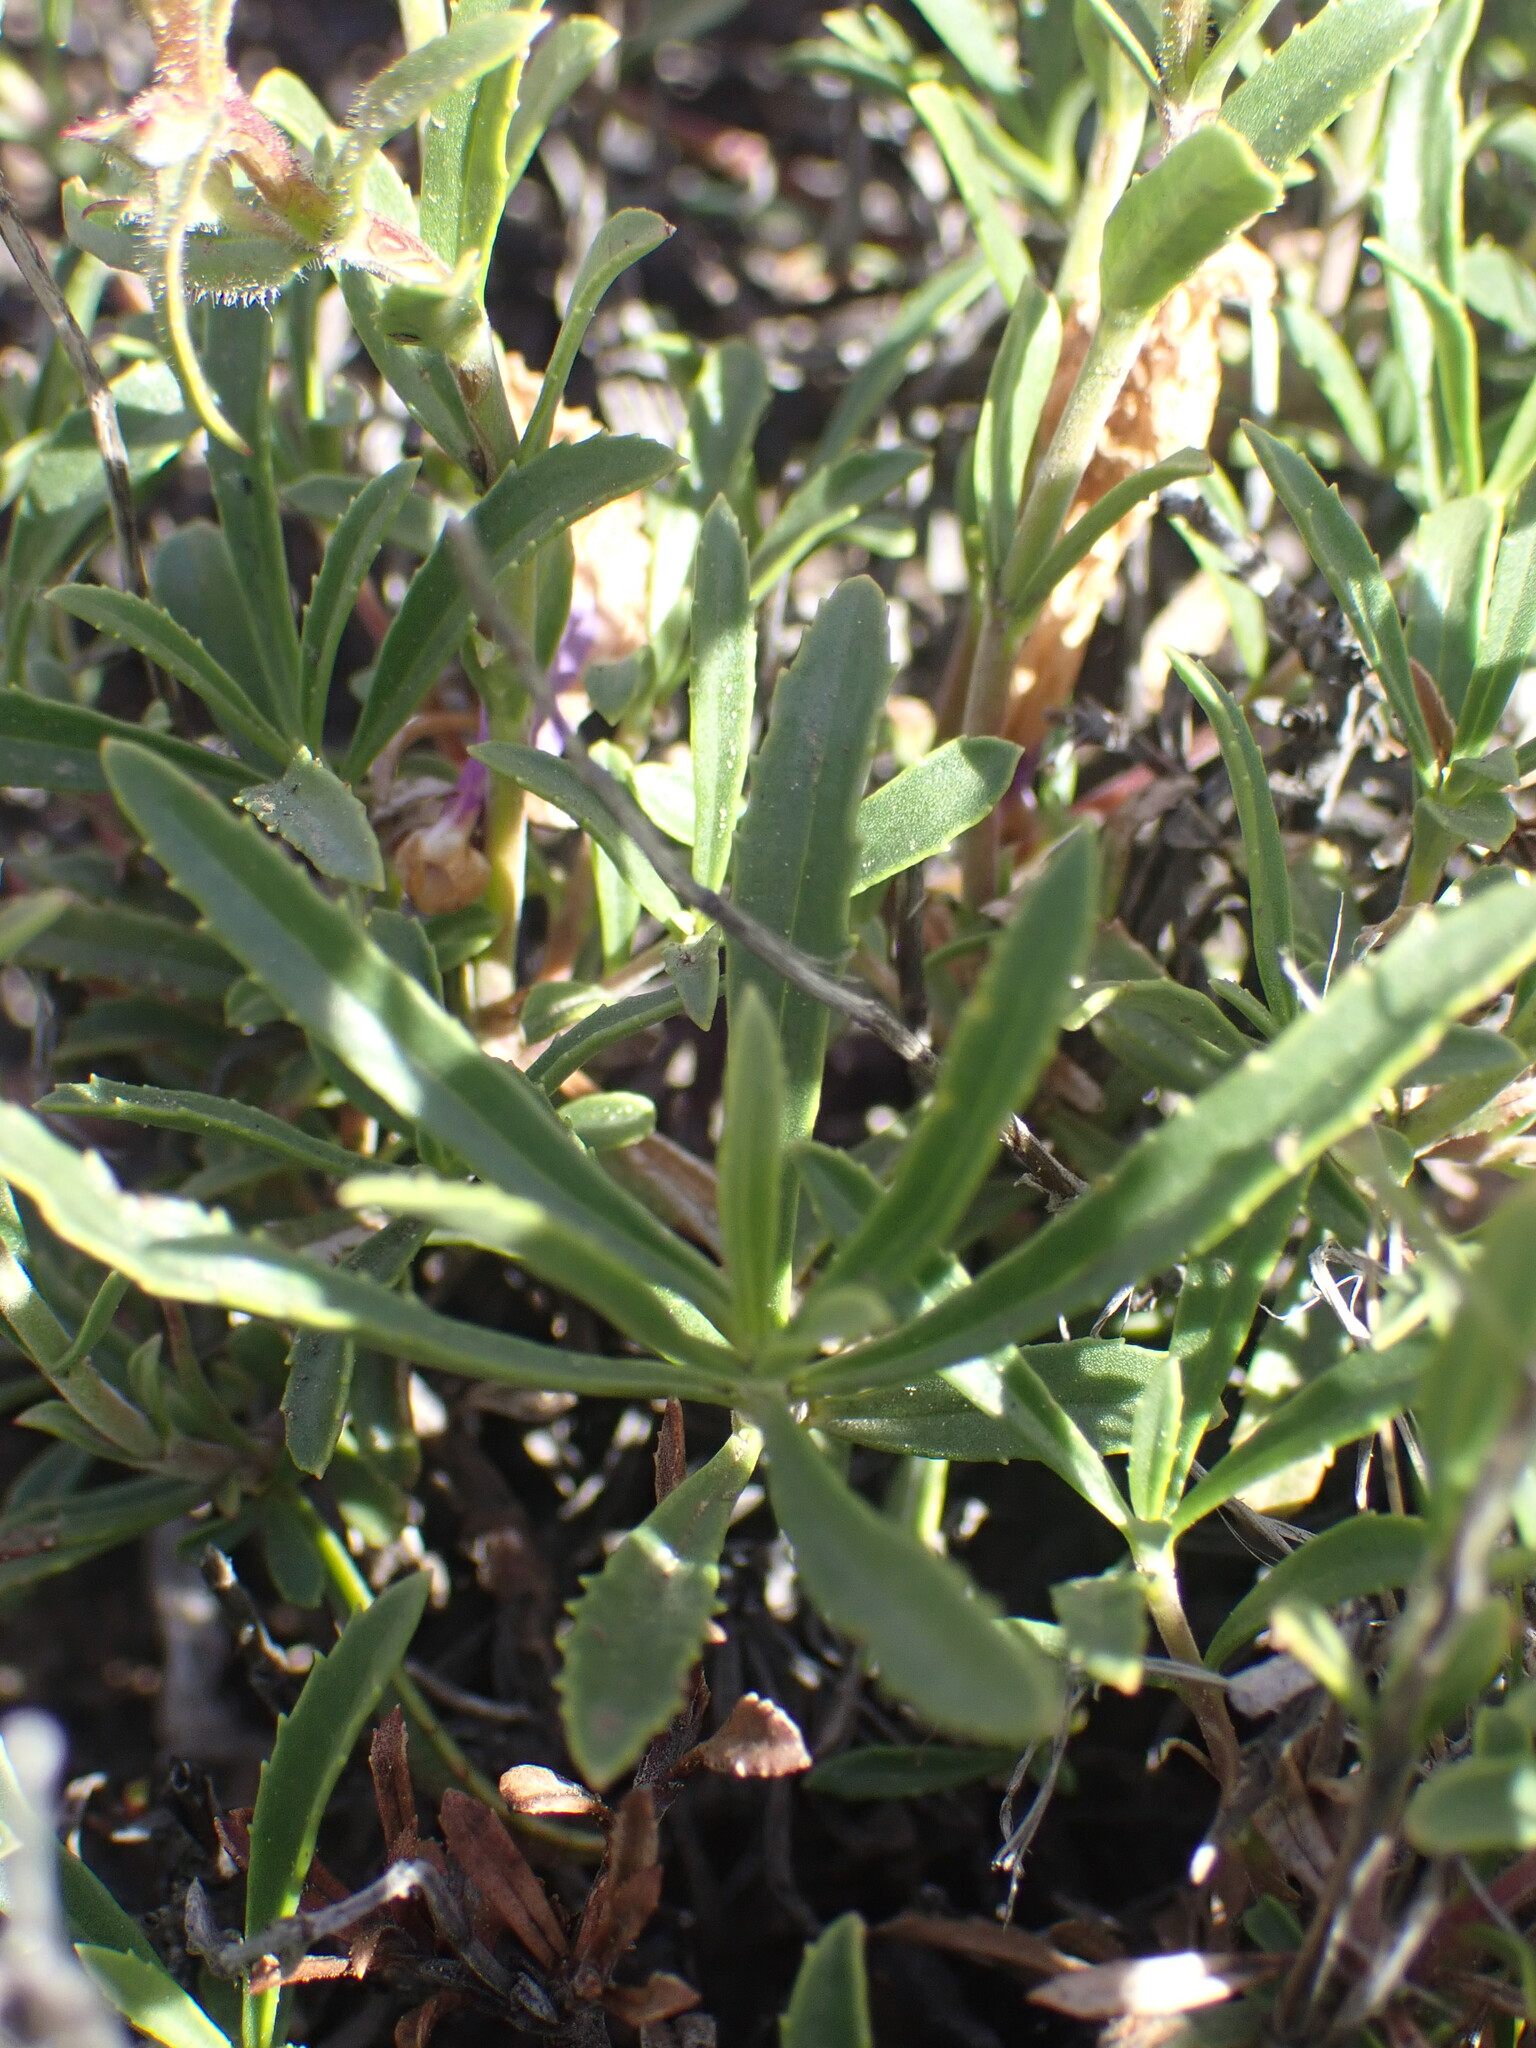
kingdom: Plantae
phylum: Tracheophyta
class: Magnoliopsida
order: Lamiales
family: Plantaginaceae
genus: Penstemon
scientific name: Penstemon fruticosus
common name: Bush penstemon
